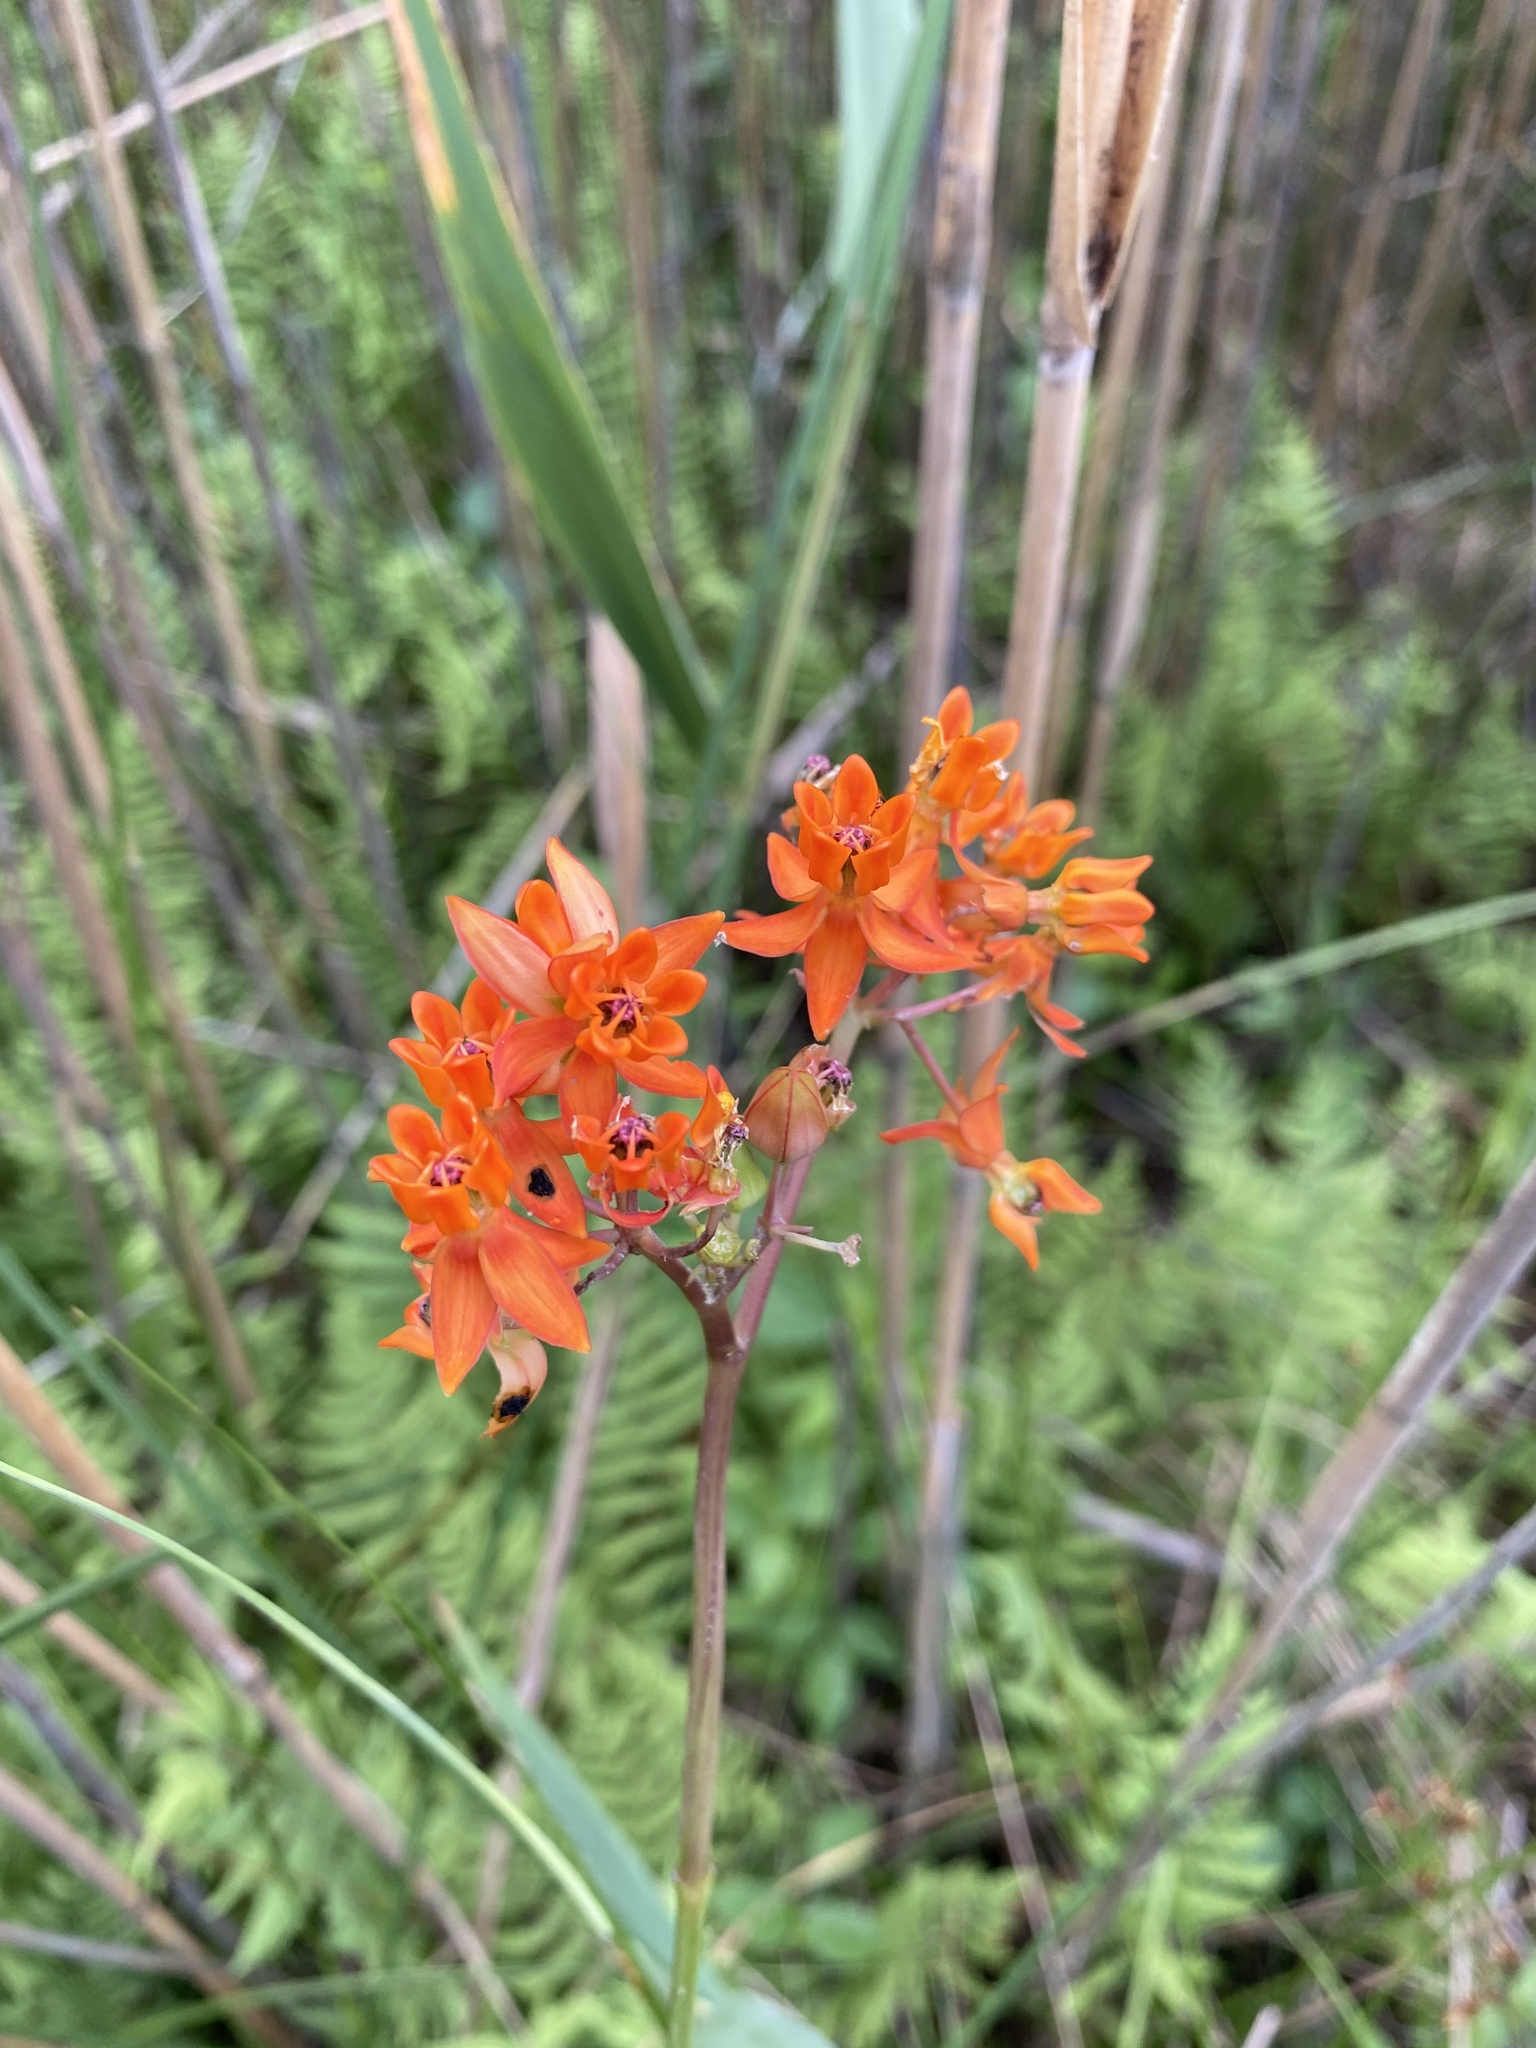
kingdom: Plantae
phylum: Tracheophyta
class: Magnoliopsida
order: Gentianales
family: Apocynaceae
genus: Asclepias
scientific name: Asclepias lanceolata
